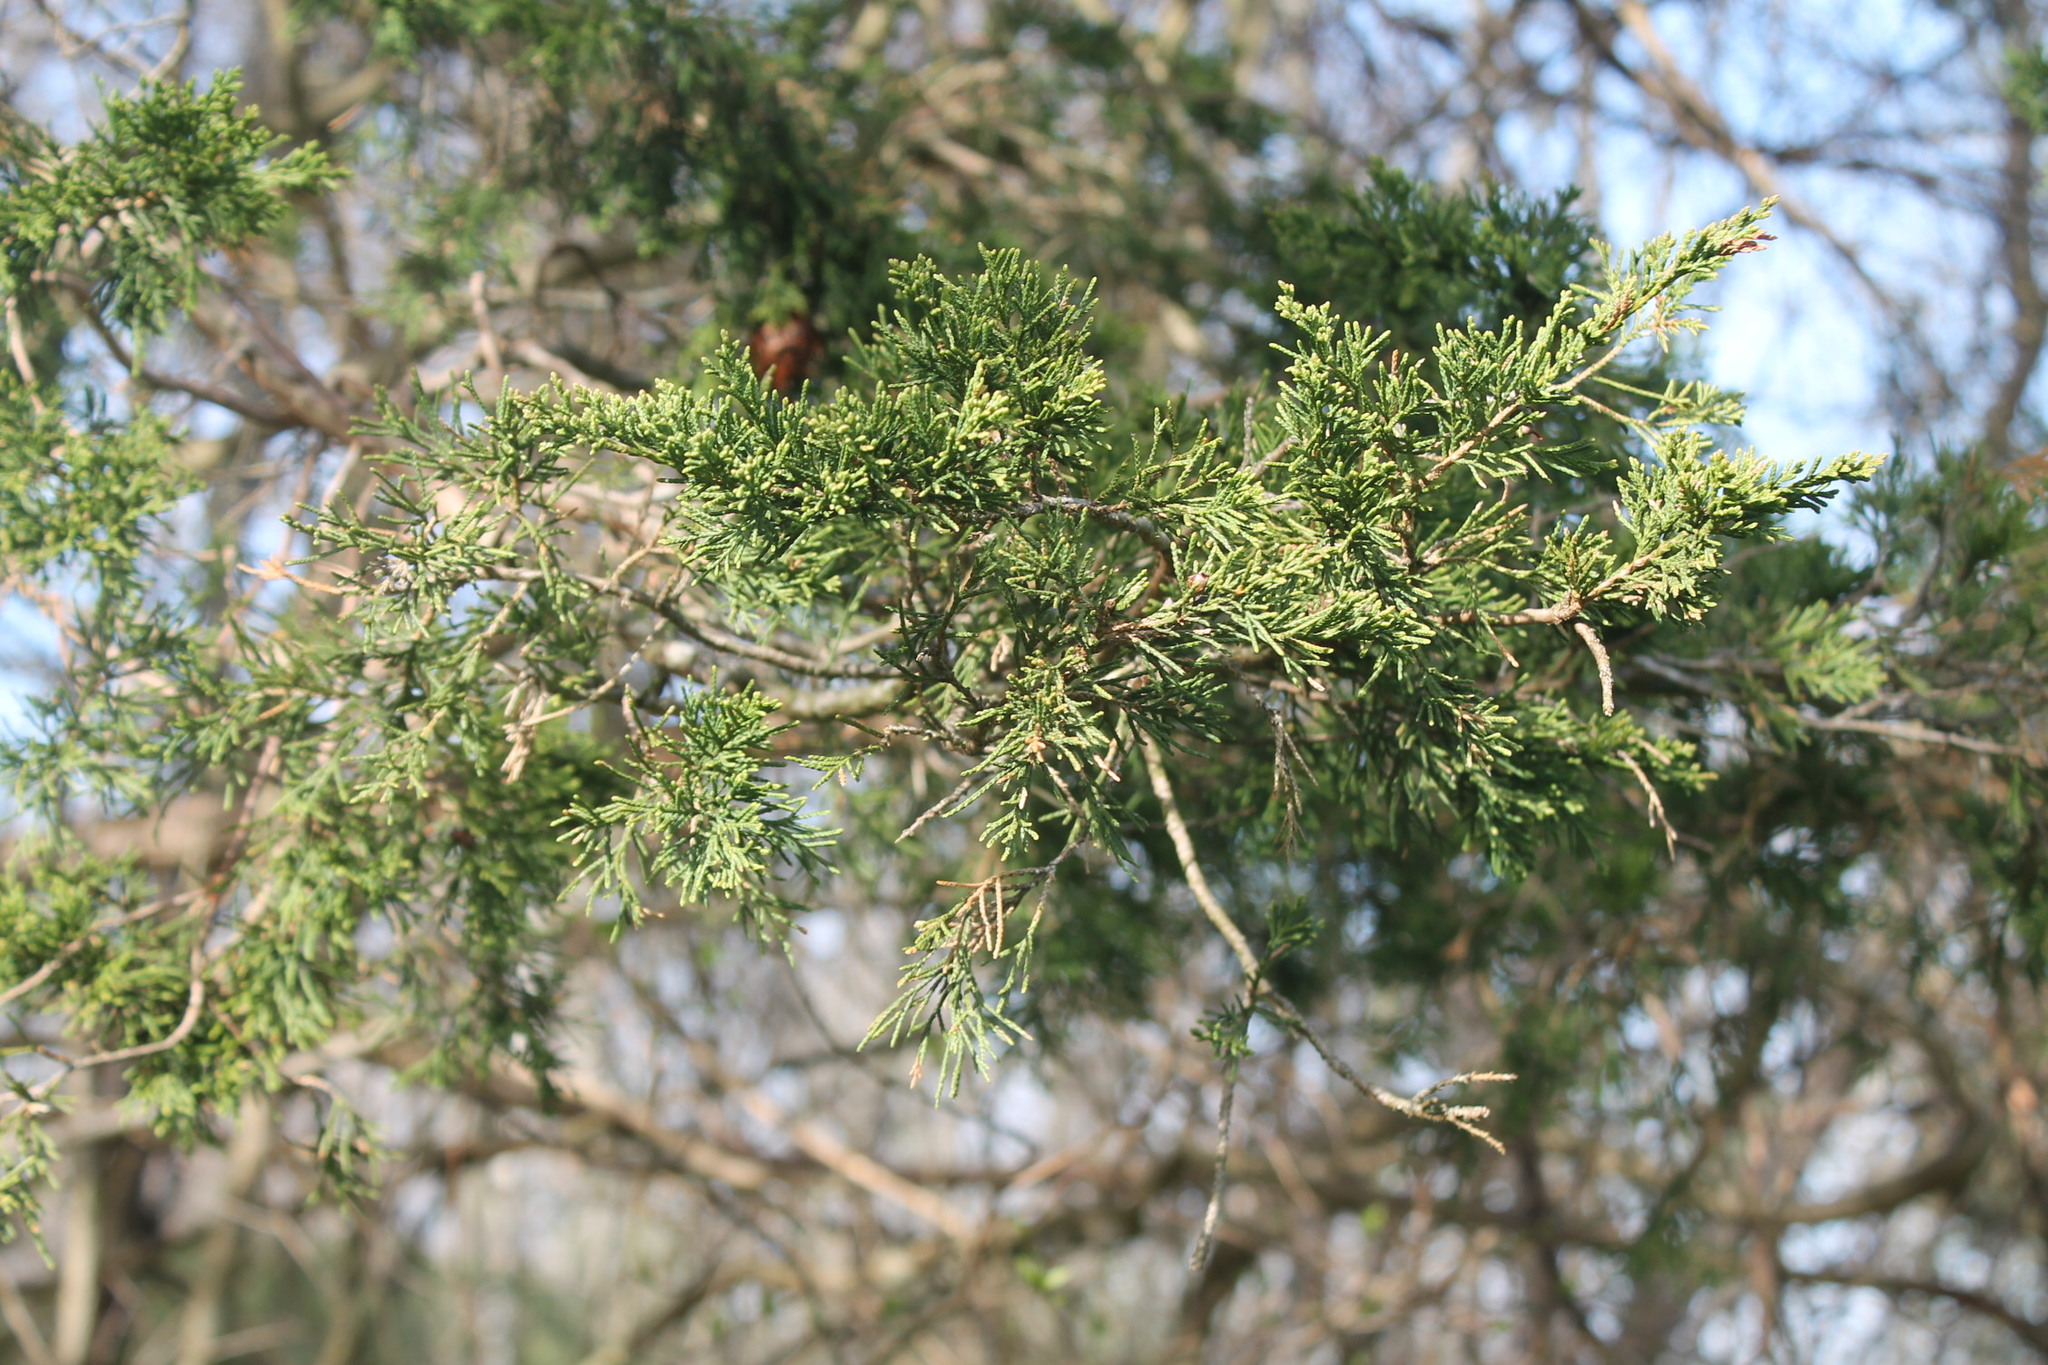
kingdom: Plantae
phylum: Tracheophyta
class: Pinopsida
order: Pinales
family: Cupressaceae
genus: Juniperus
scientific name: Juniperus virginiana
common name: Red juniper
